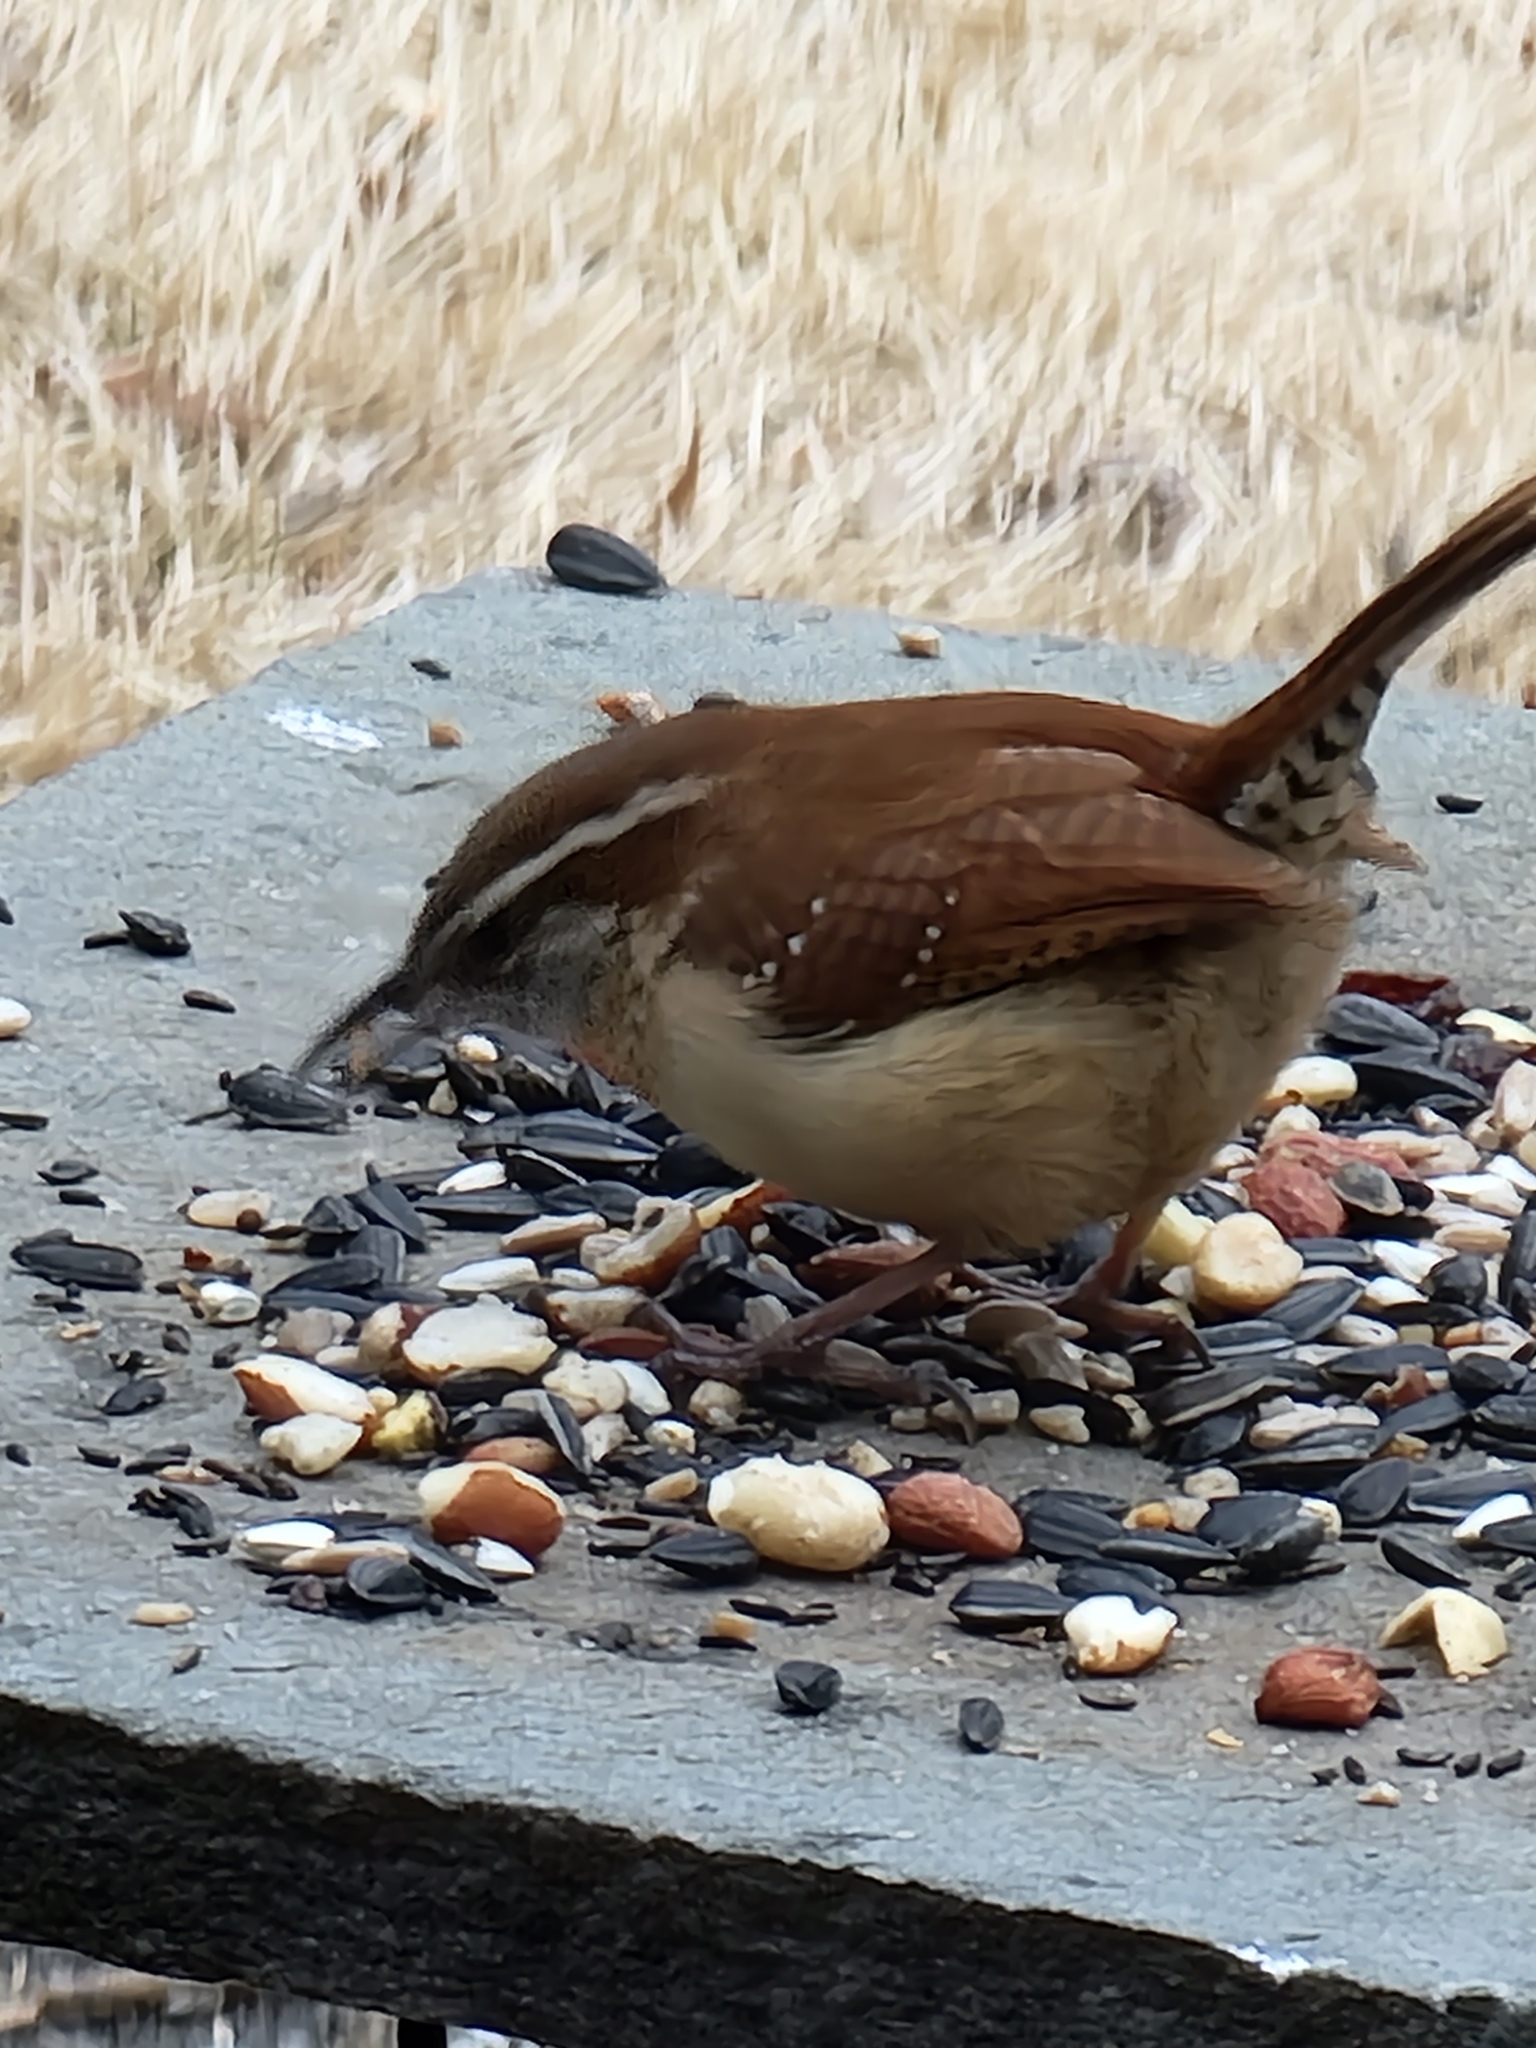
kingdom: Animalia
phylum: Chordata
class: Aves
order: Passeriformes
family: Troglodytidae
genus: Thryothorus
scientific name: Thryothorus ludovicianus
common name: Carolina wren
